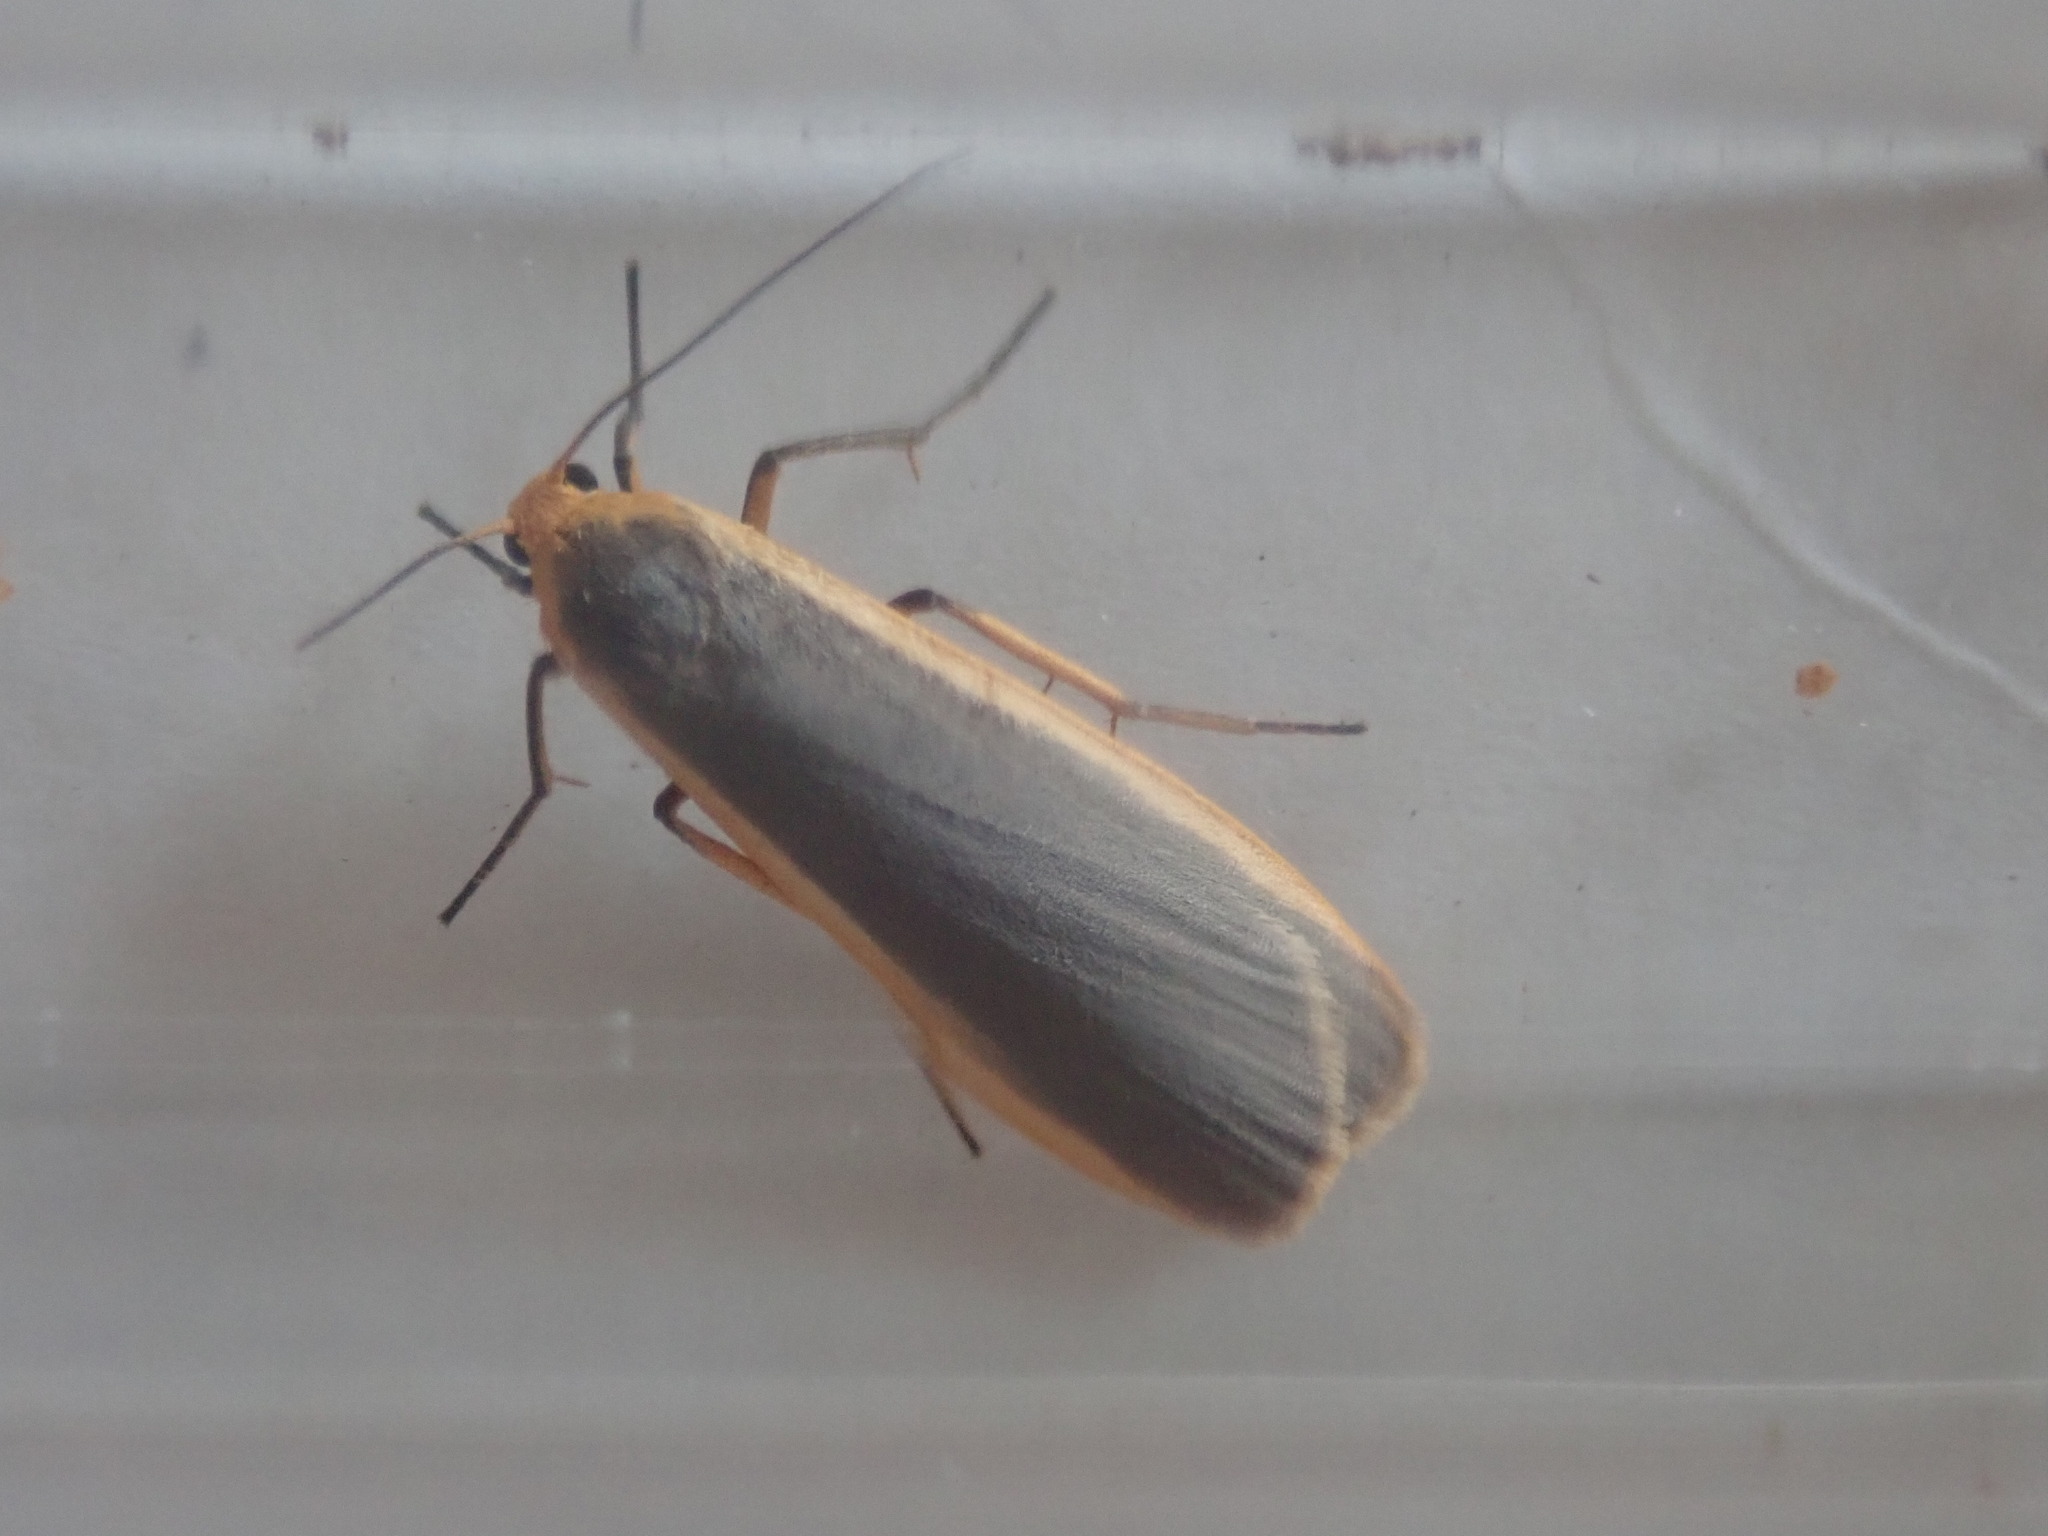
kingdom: Animalia
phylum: Arthropoda
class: Insecta
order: Lepidoptera
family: Erebidae
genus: Nyea
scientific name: Nyea lurideola
